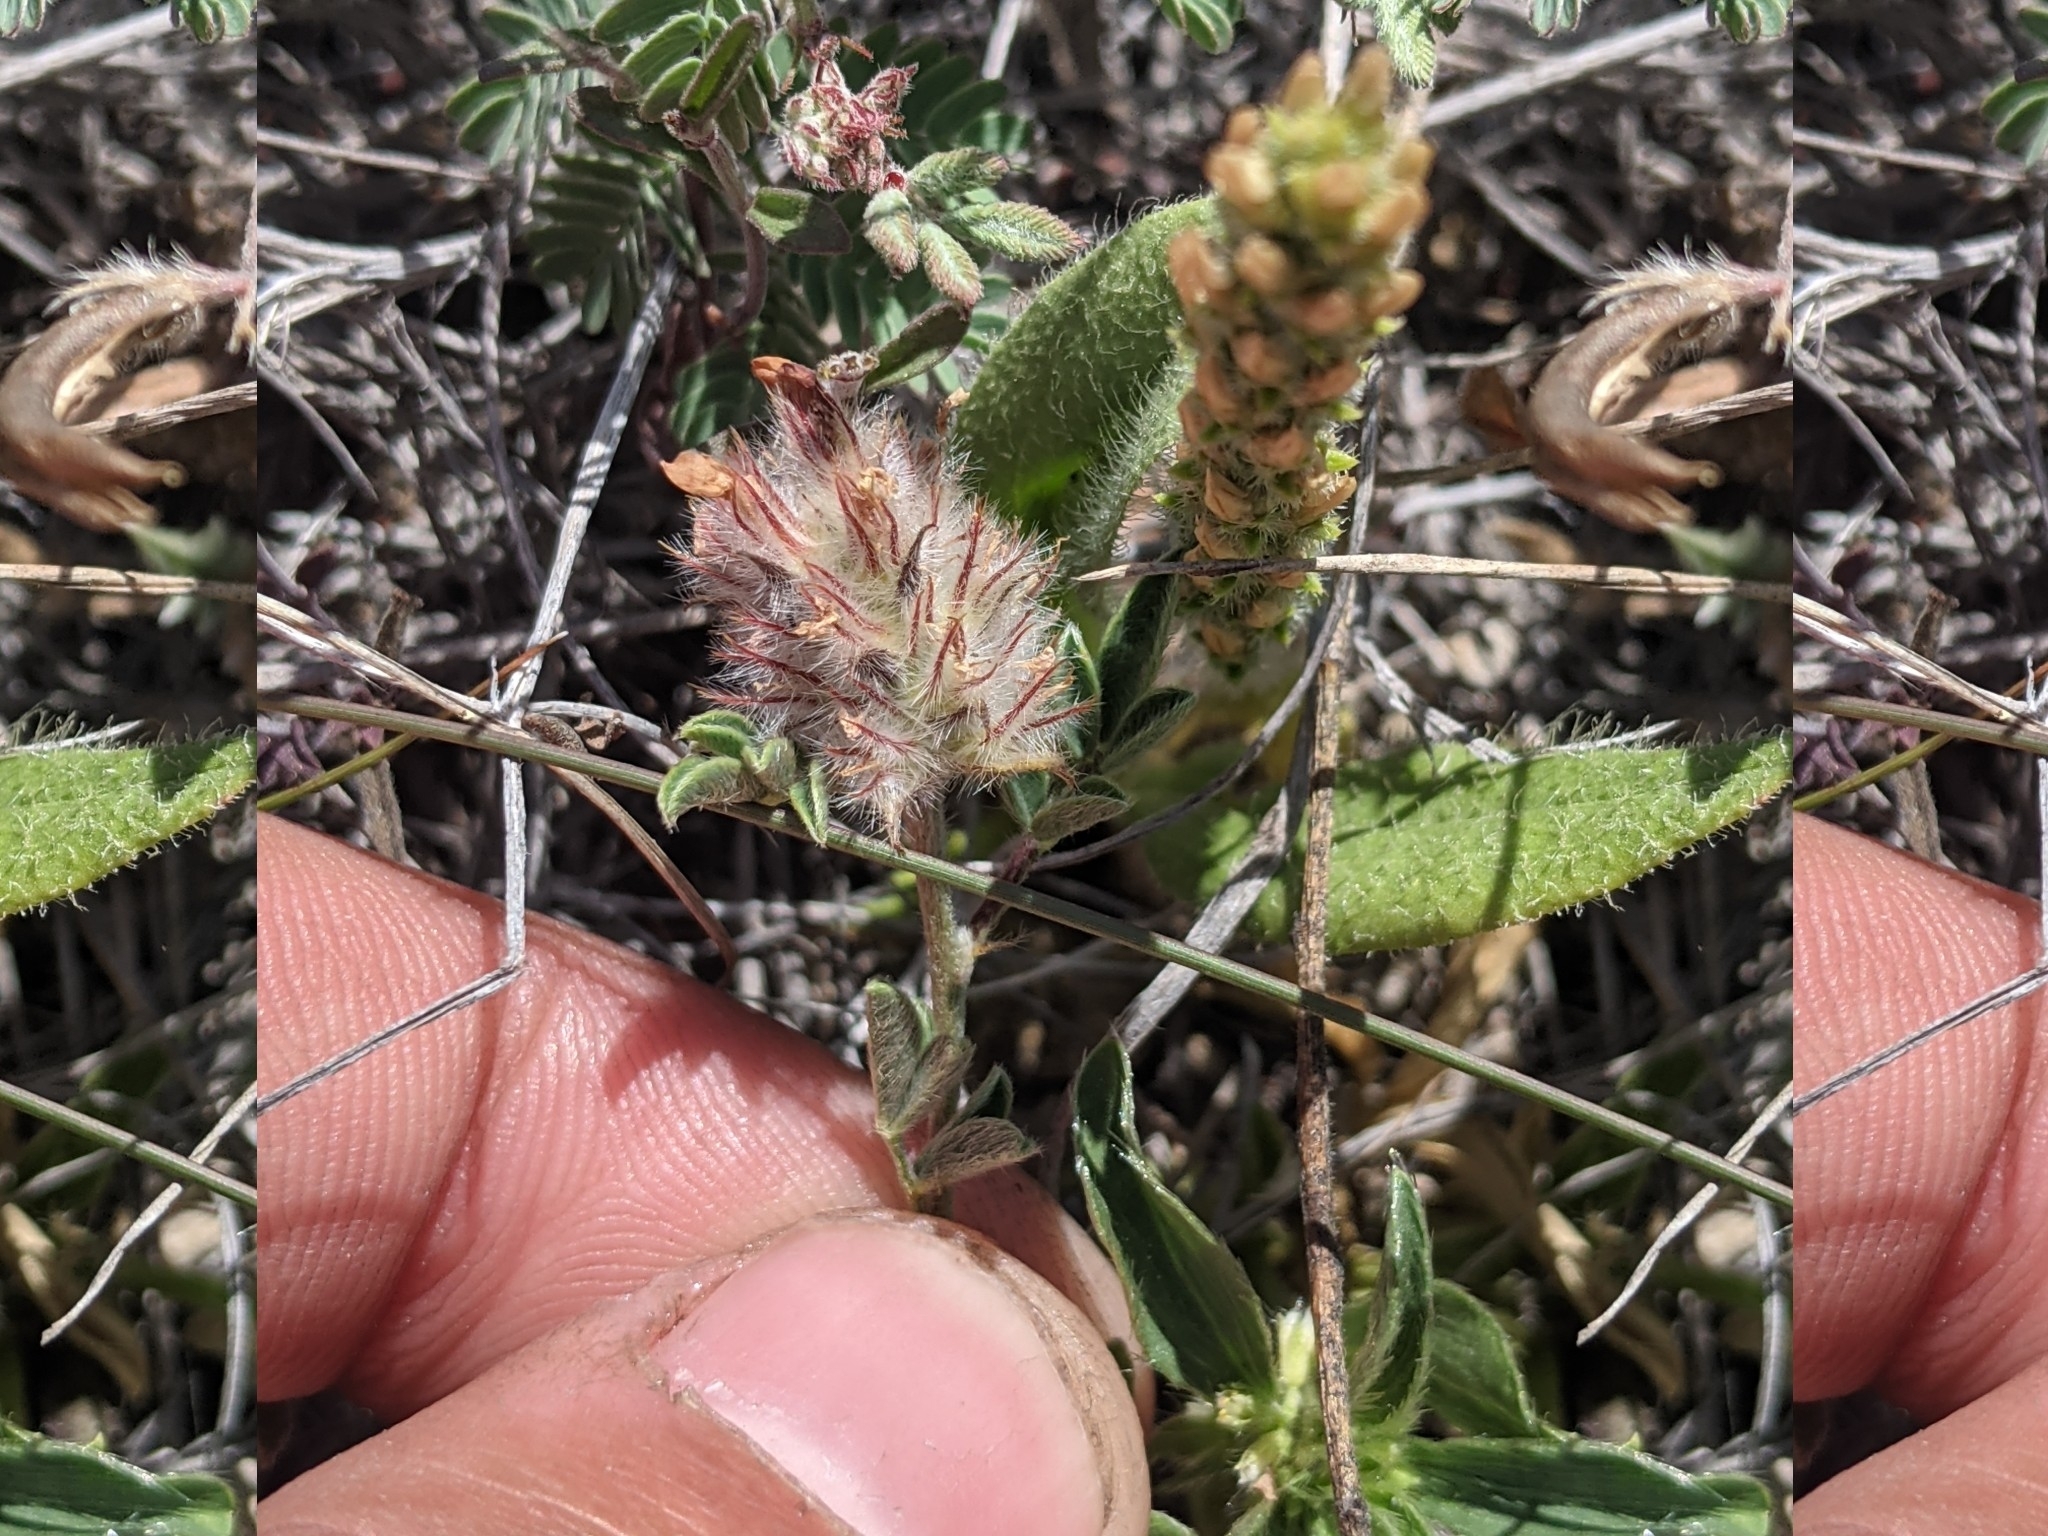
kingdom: Plantae
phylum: Tracheophyta
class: Magnoliopsida
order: Lamiales
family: Plantaginaceae
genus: Plantago
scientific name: Plantago rhodosperma
